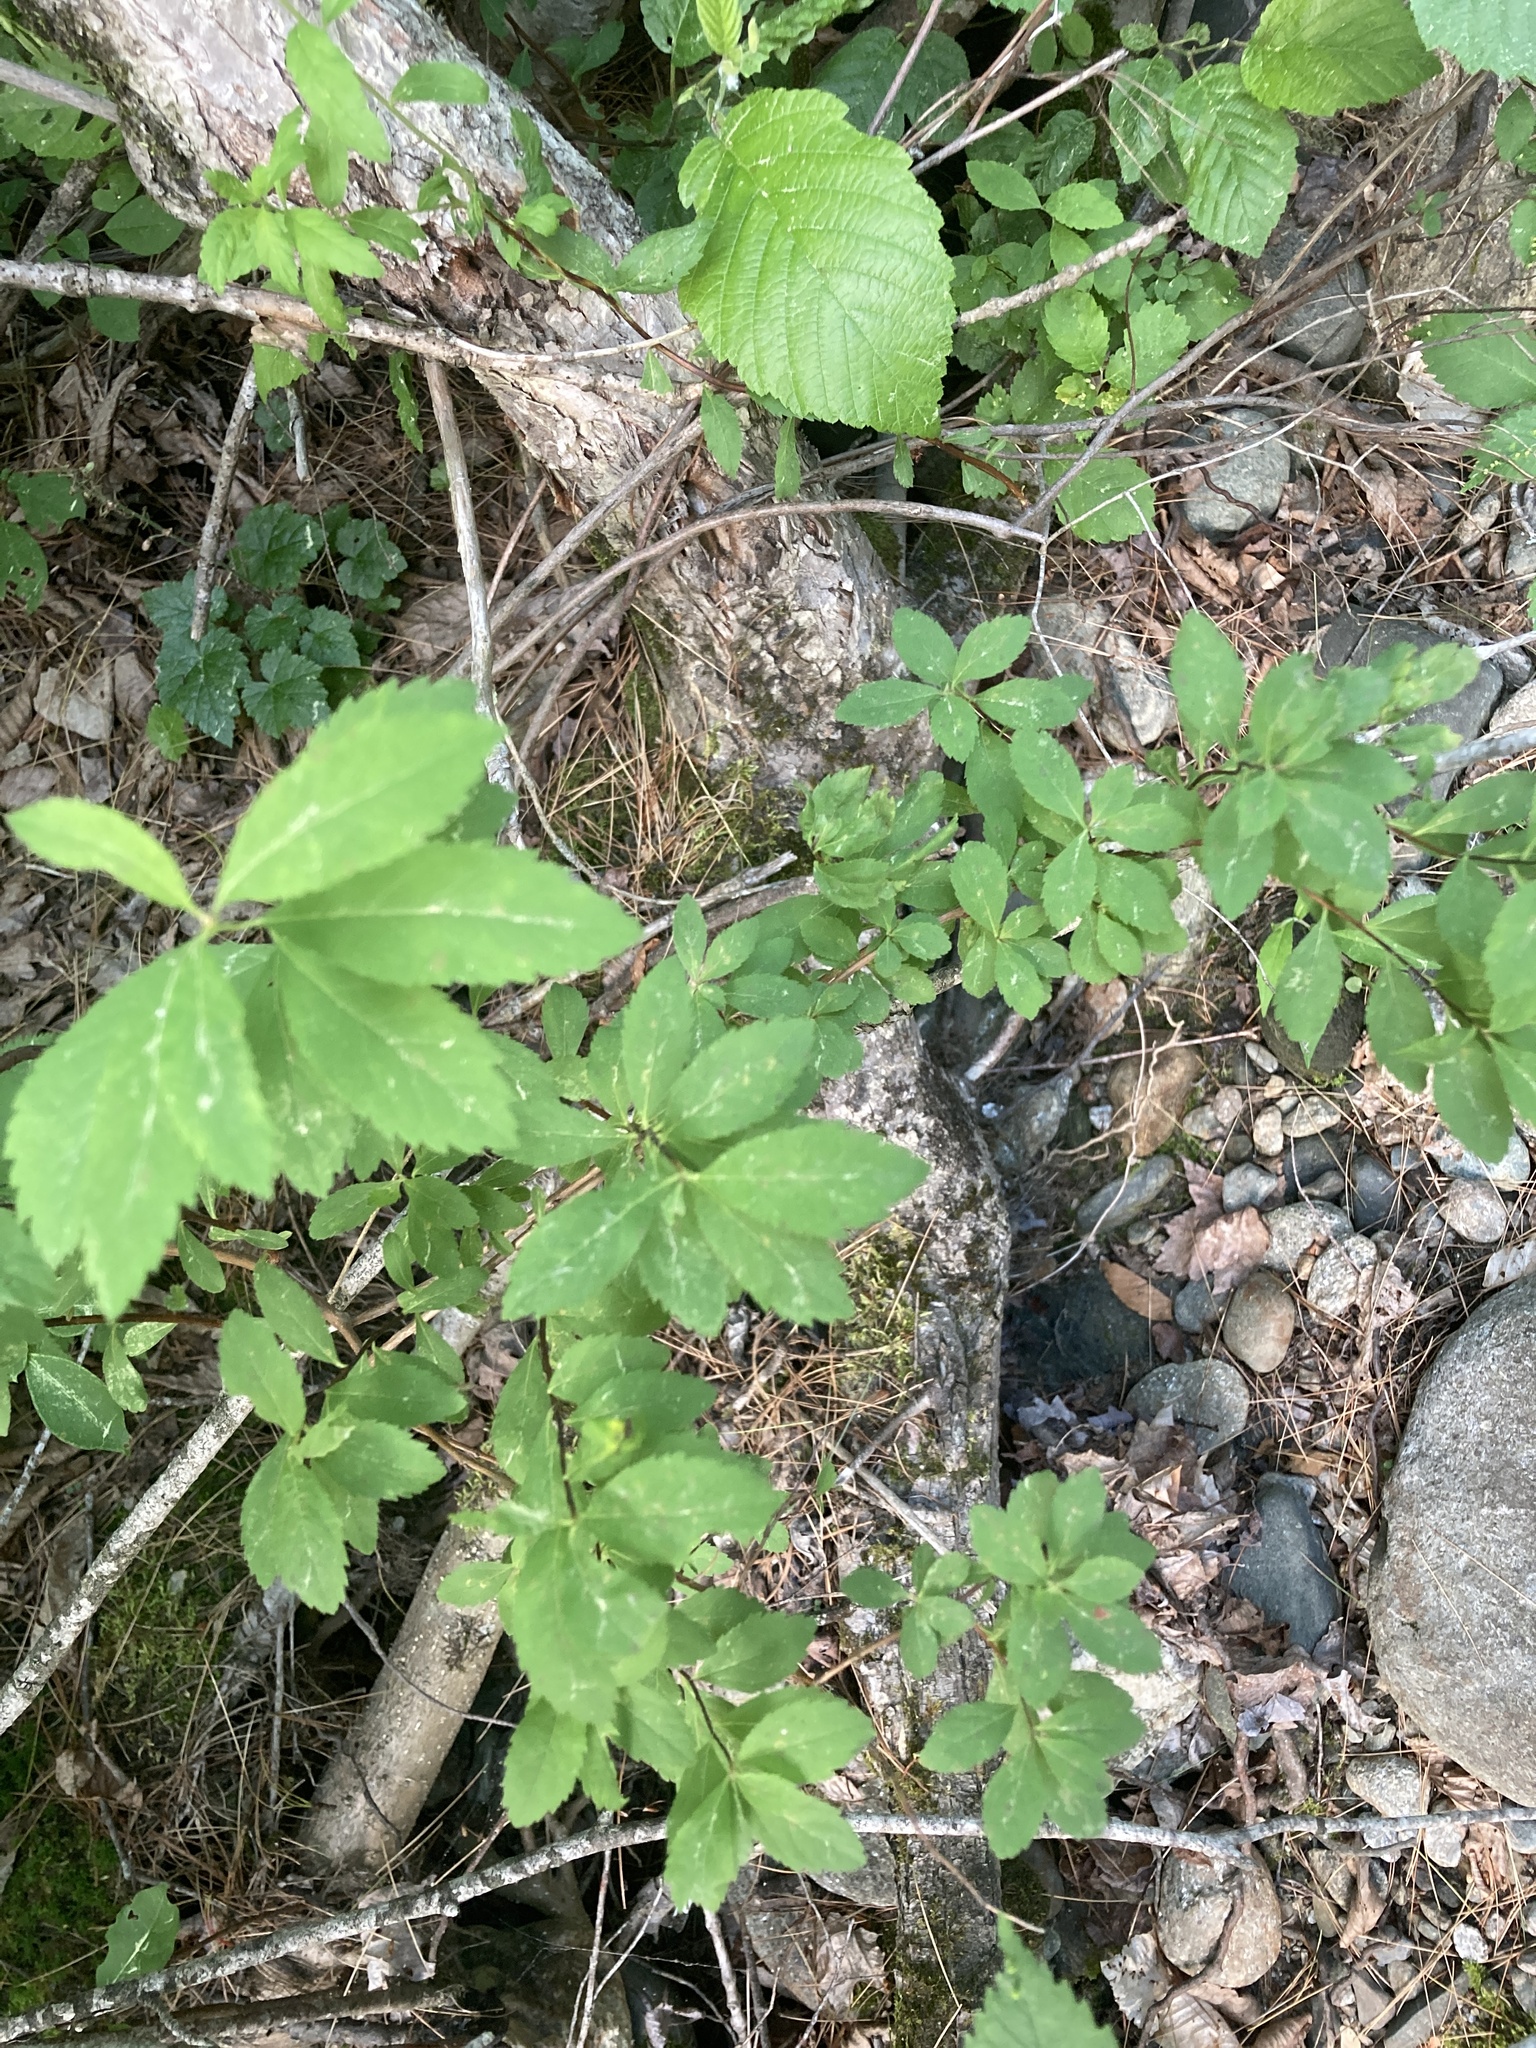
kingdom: Plantae
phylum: Tracheophyta
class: Magnoliopsida
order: Rosales
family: Rosaceae
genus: Spiraea
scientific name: Spiraea alba
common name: Pale bridewort
